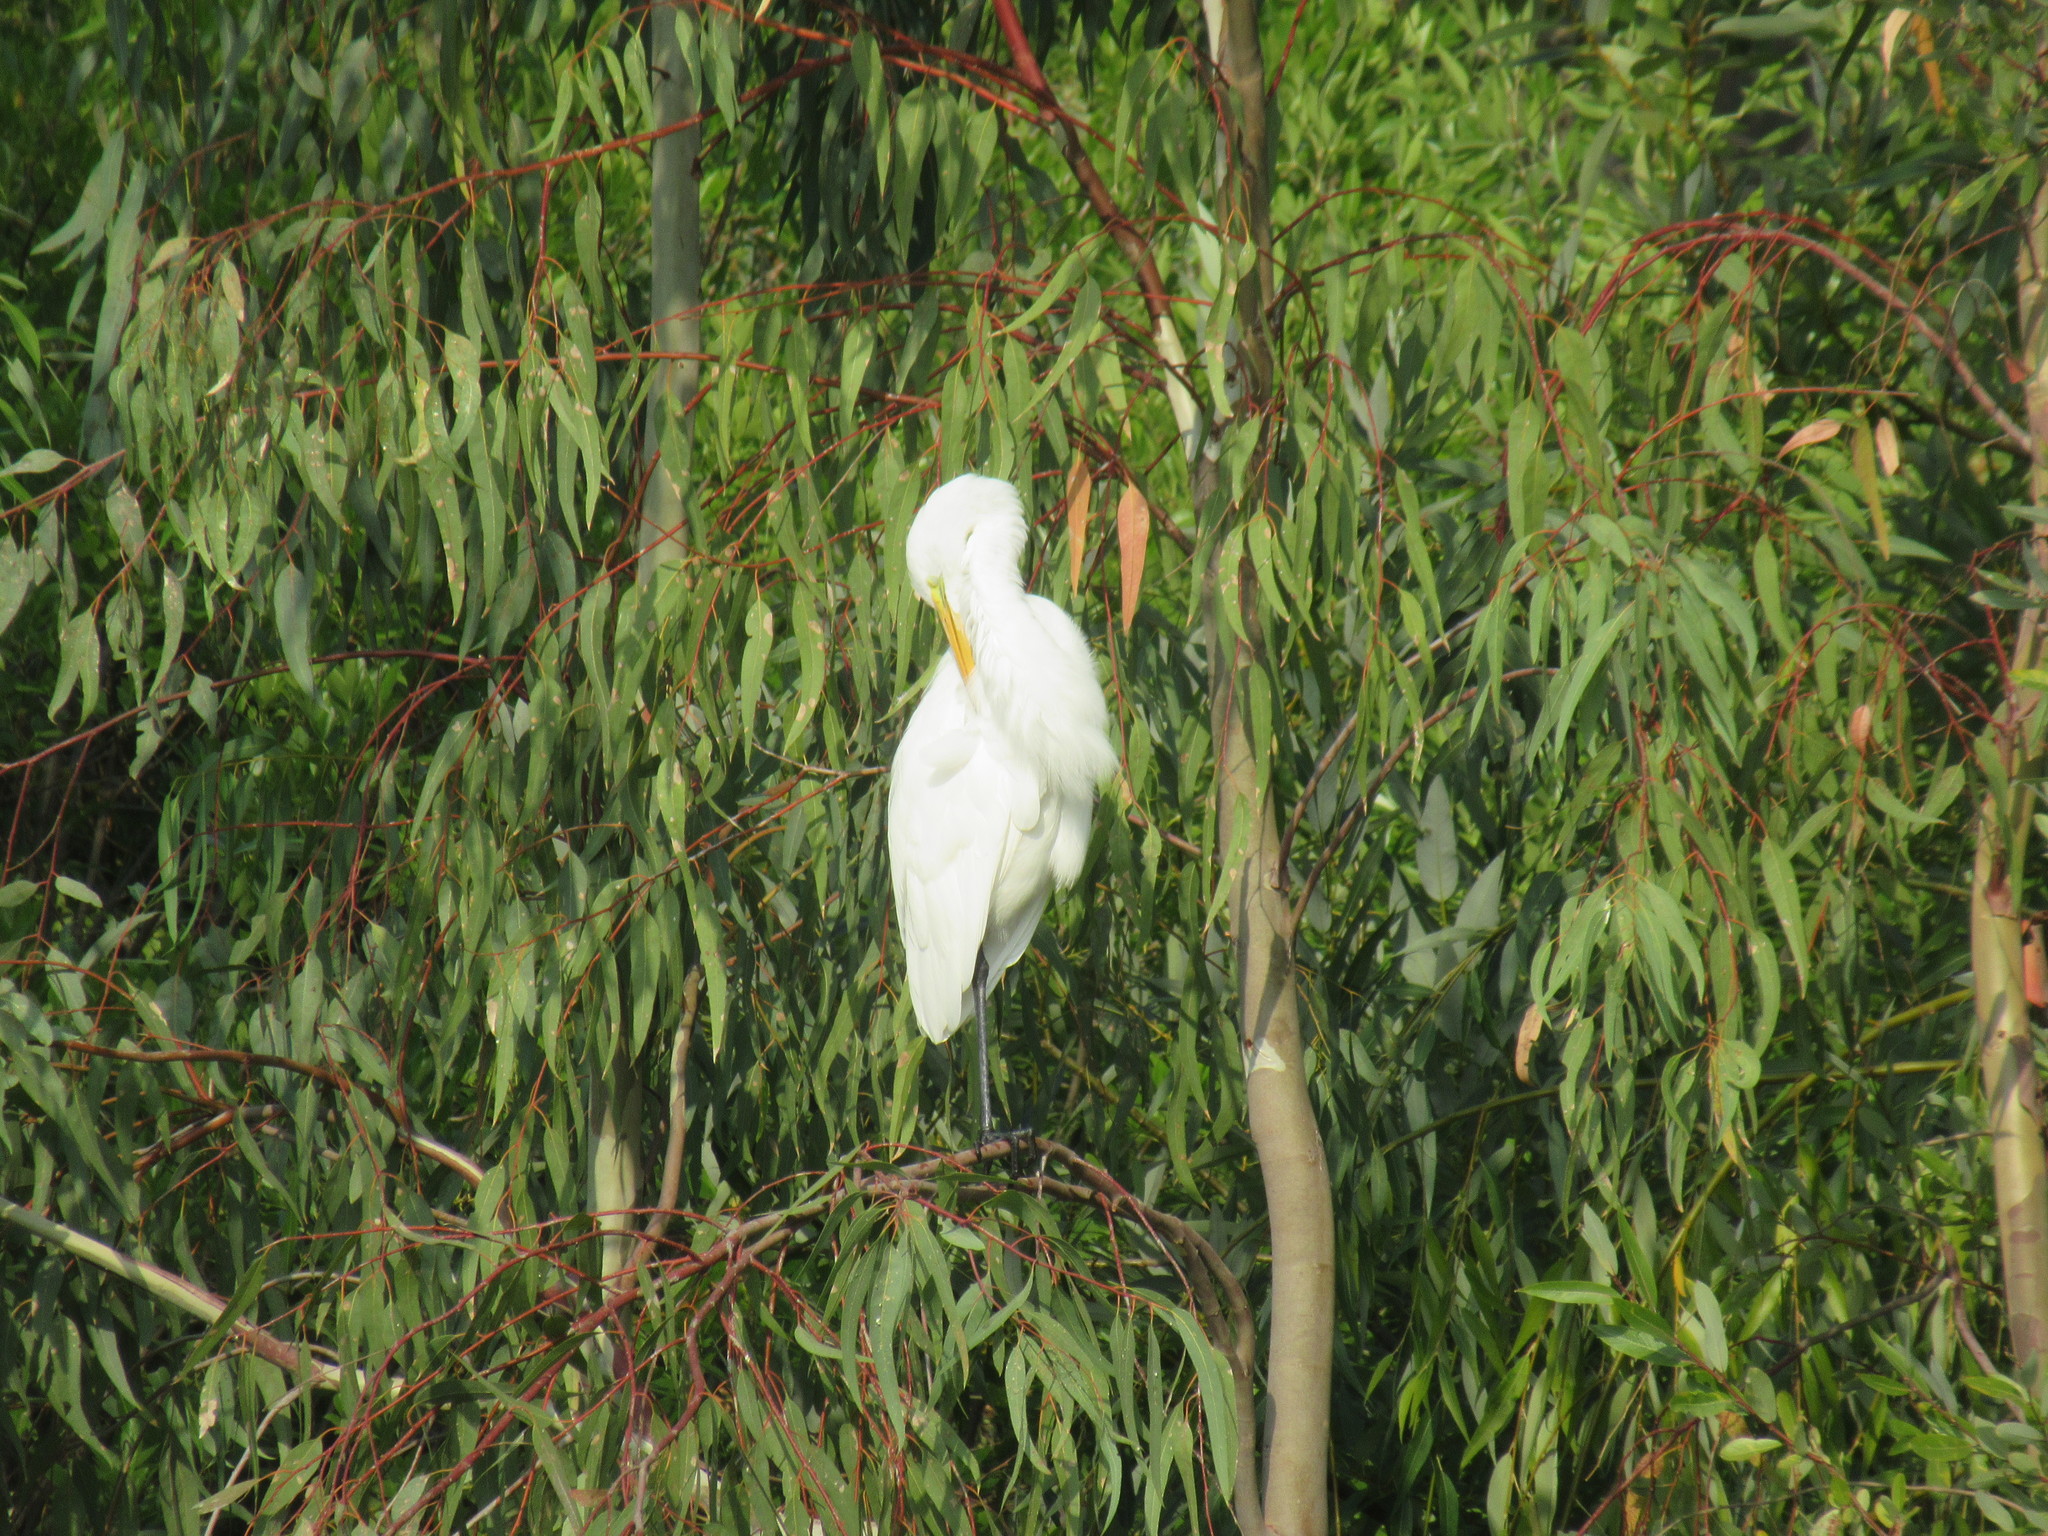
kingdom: Animalia
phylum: Chordata
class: Aves
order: Pelecaniformes
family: Ardeidae
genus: Ardea
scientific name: Ardea alba
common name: Great egret
